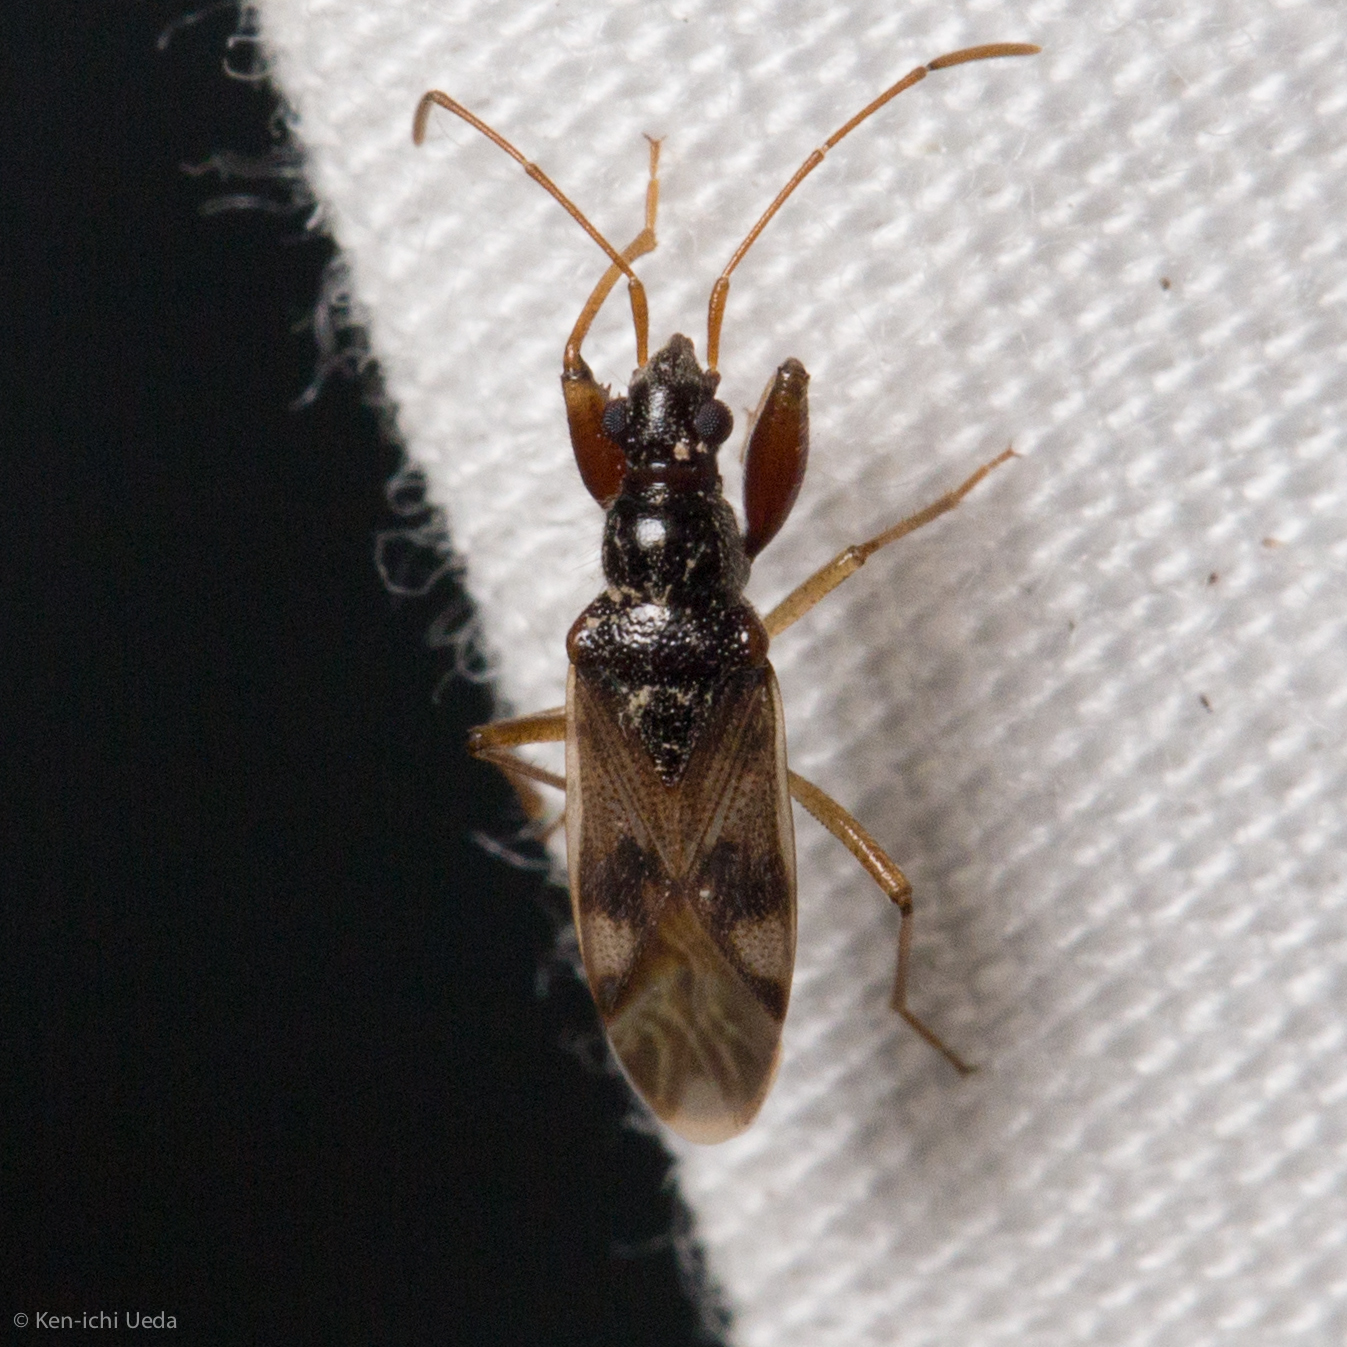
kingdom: Animalia
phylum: Arthropoda
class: Insecta
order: Hemiptera
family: Rhyparochromidae
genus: Pseudopamera
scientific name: Pseudopamera nitidula
